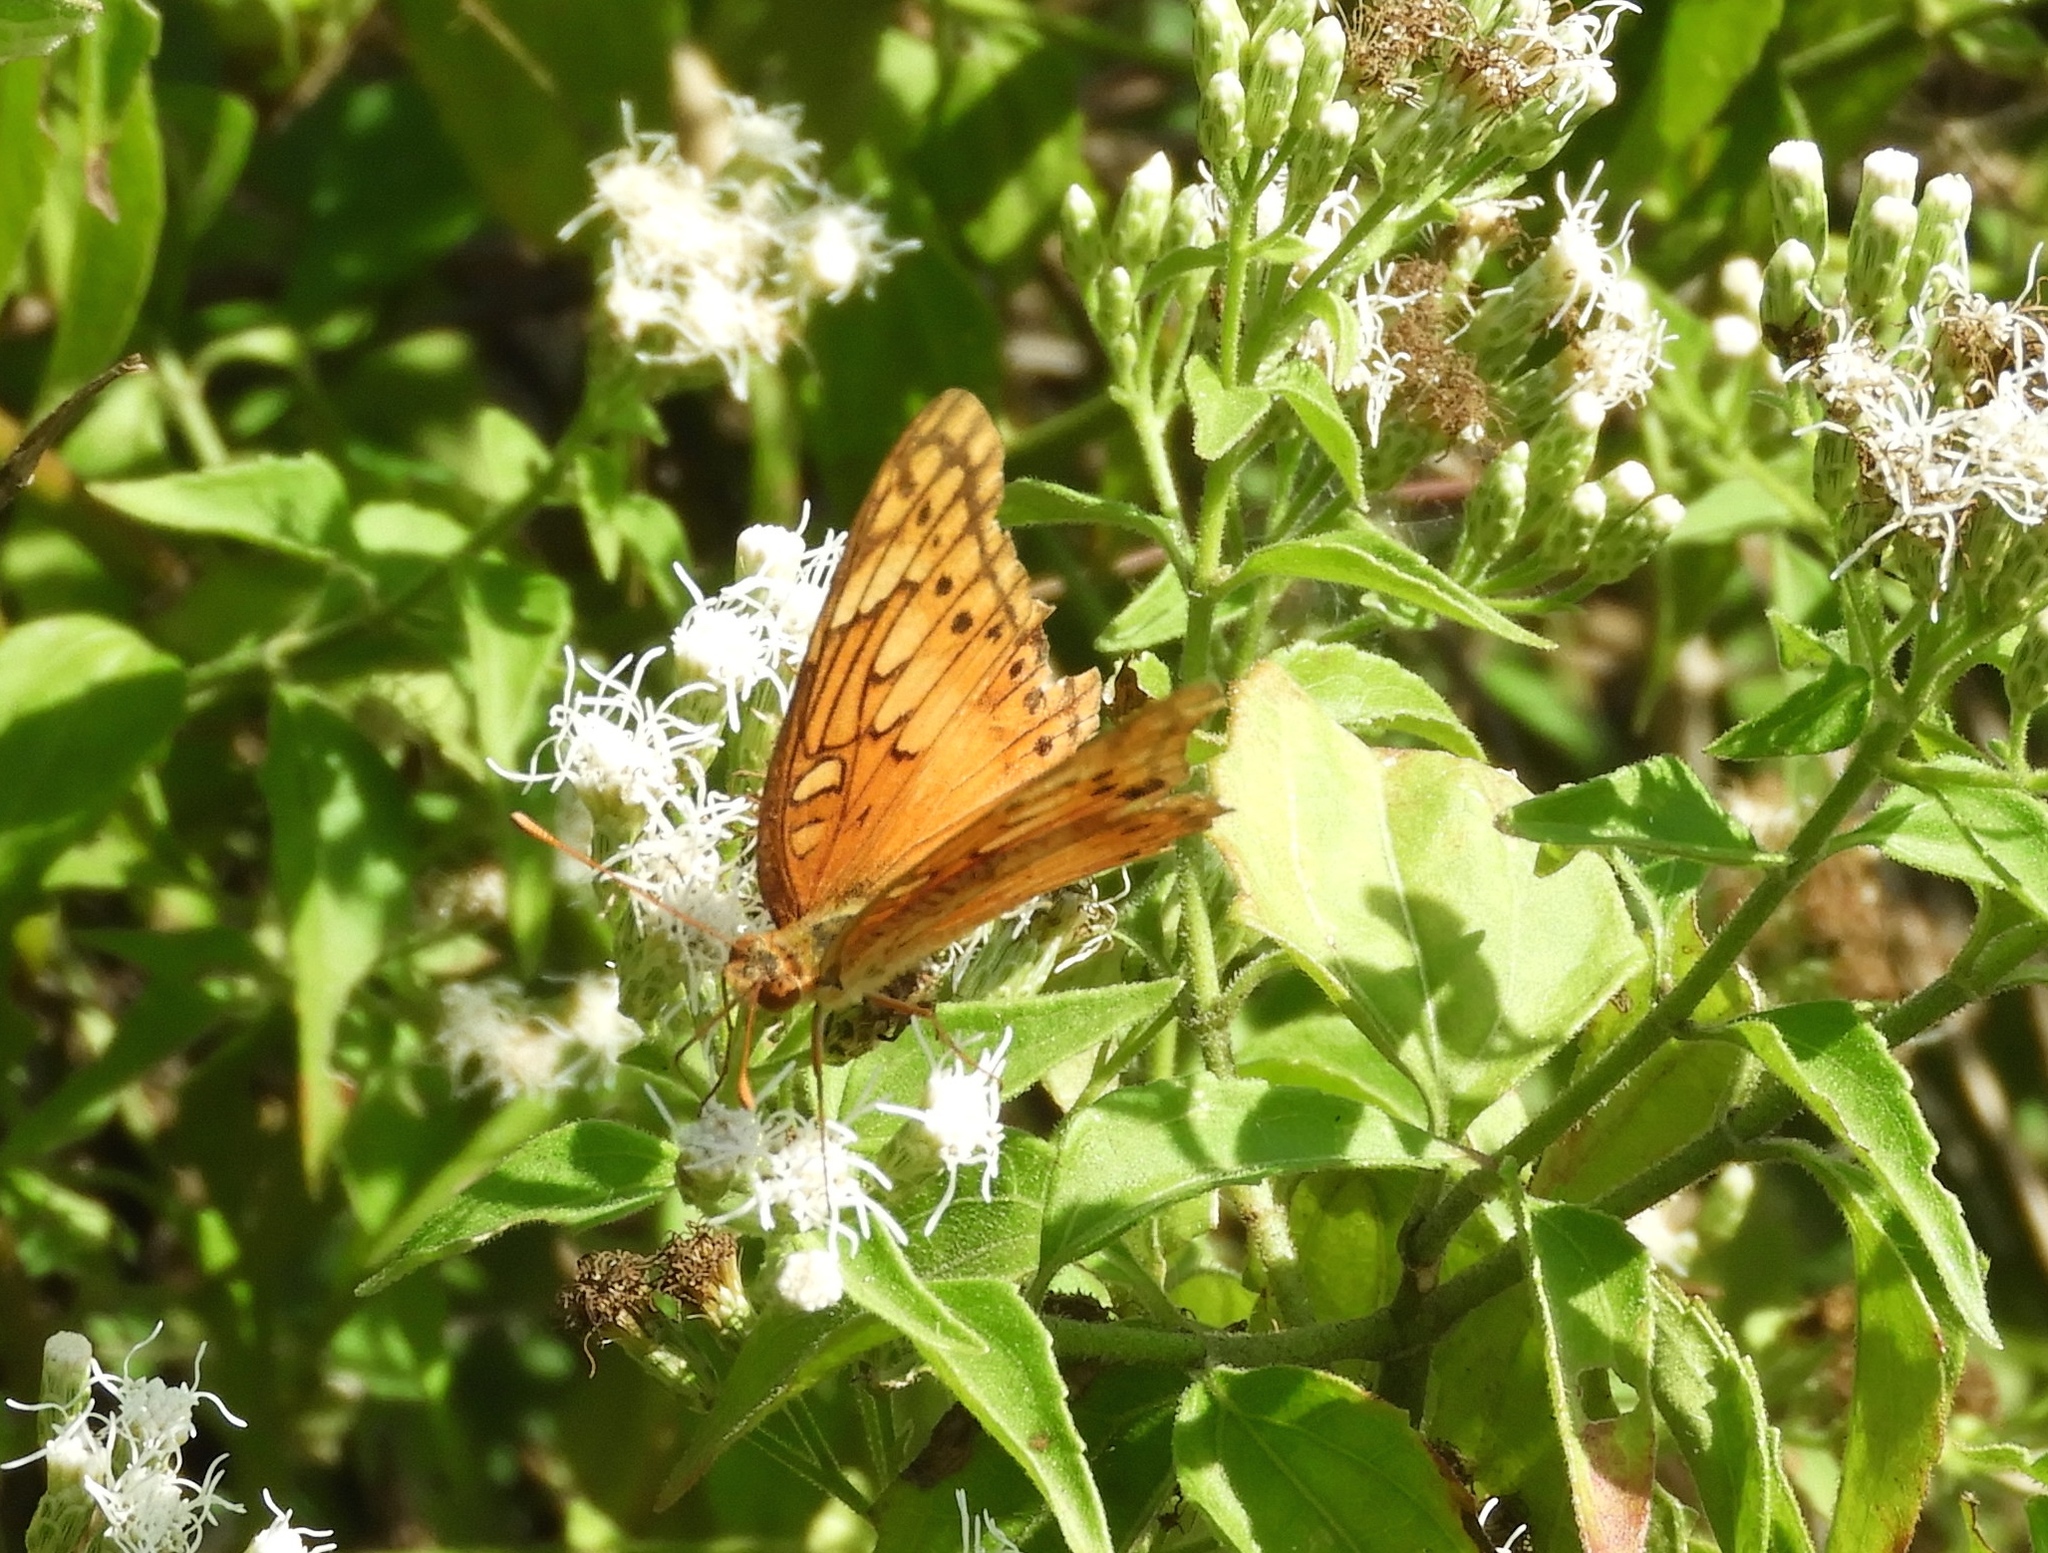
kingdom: Animalia
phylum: Arthropoda
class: Insecta
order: Lepidoptera
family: Nymphalidae
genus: Euptoieta
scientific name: Euptoieta hegesia
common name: Mexican fritillary
